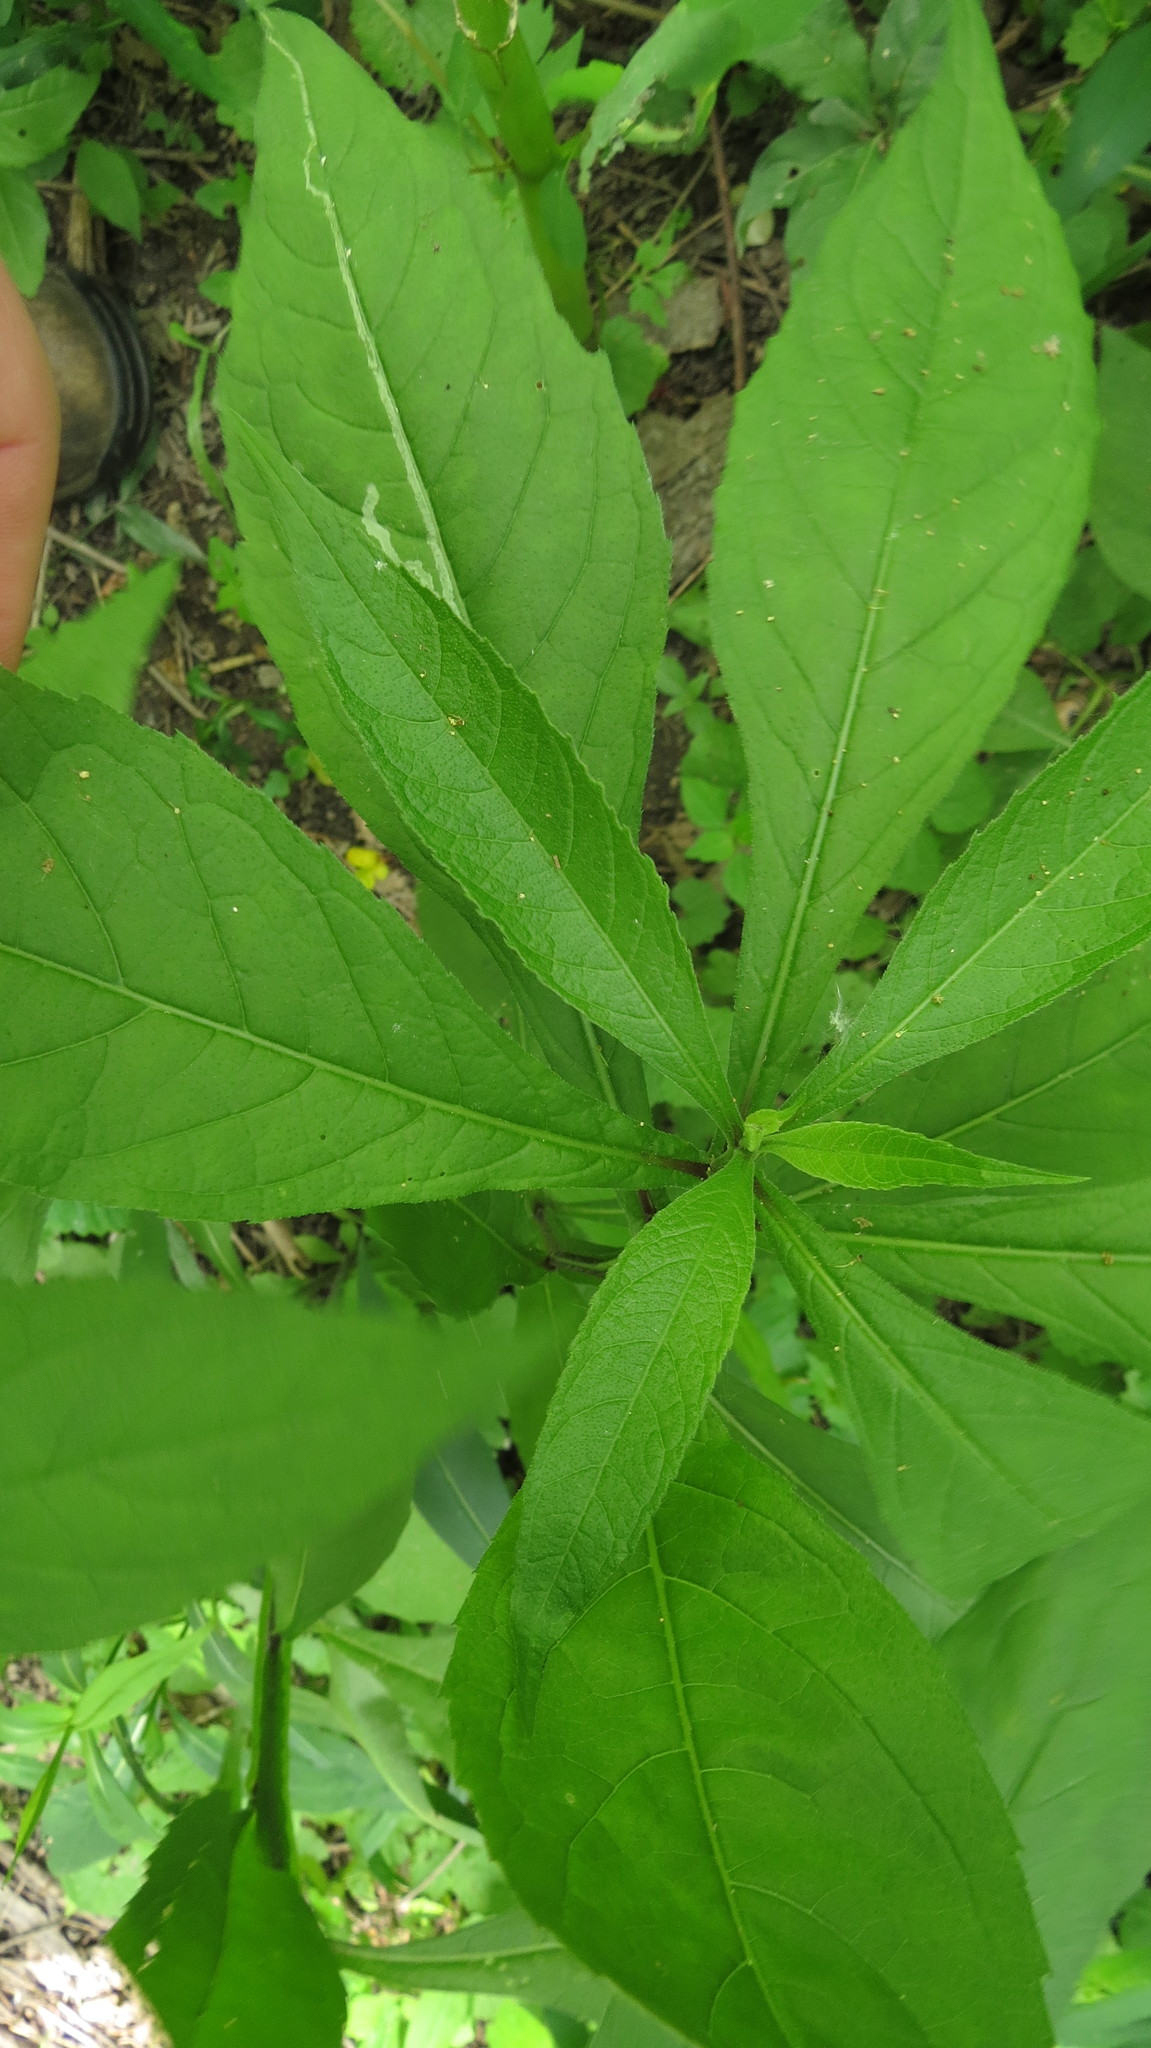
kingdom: Plantae
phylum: Tracheophyta
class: Magnoliopsida
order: Asterales
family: Asteraceae
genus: Verbesina
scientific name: Verbesina alternifolia
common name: Wingstem
